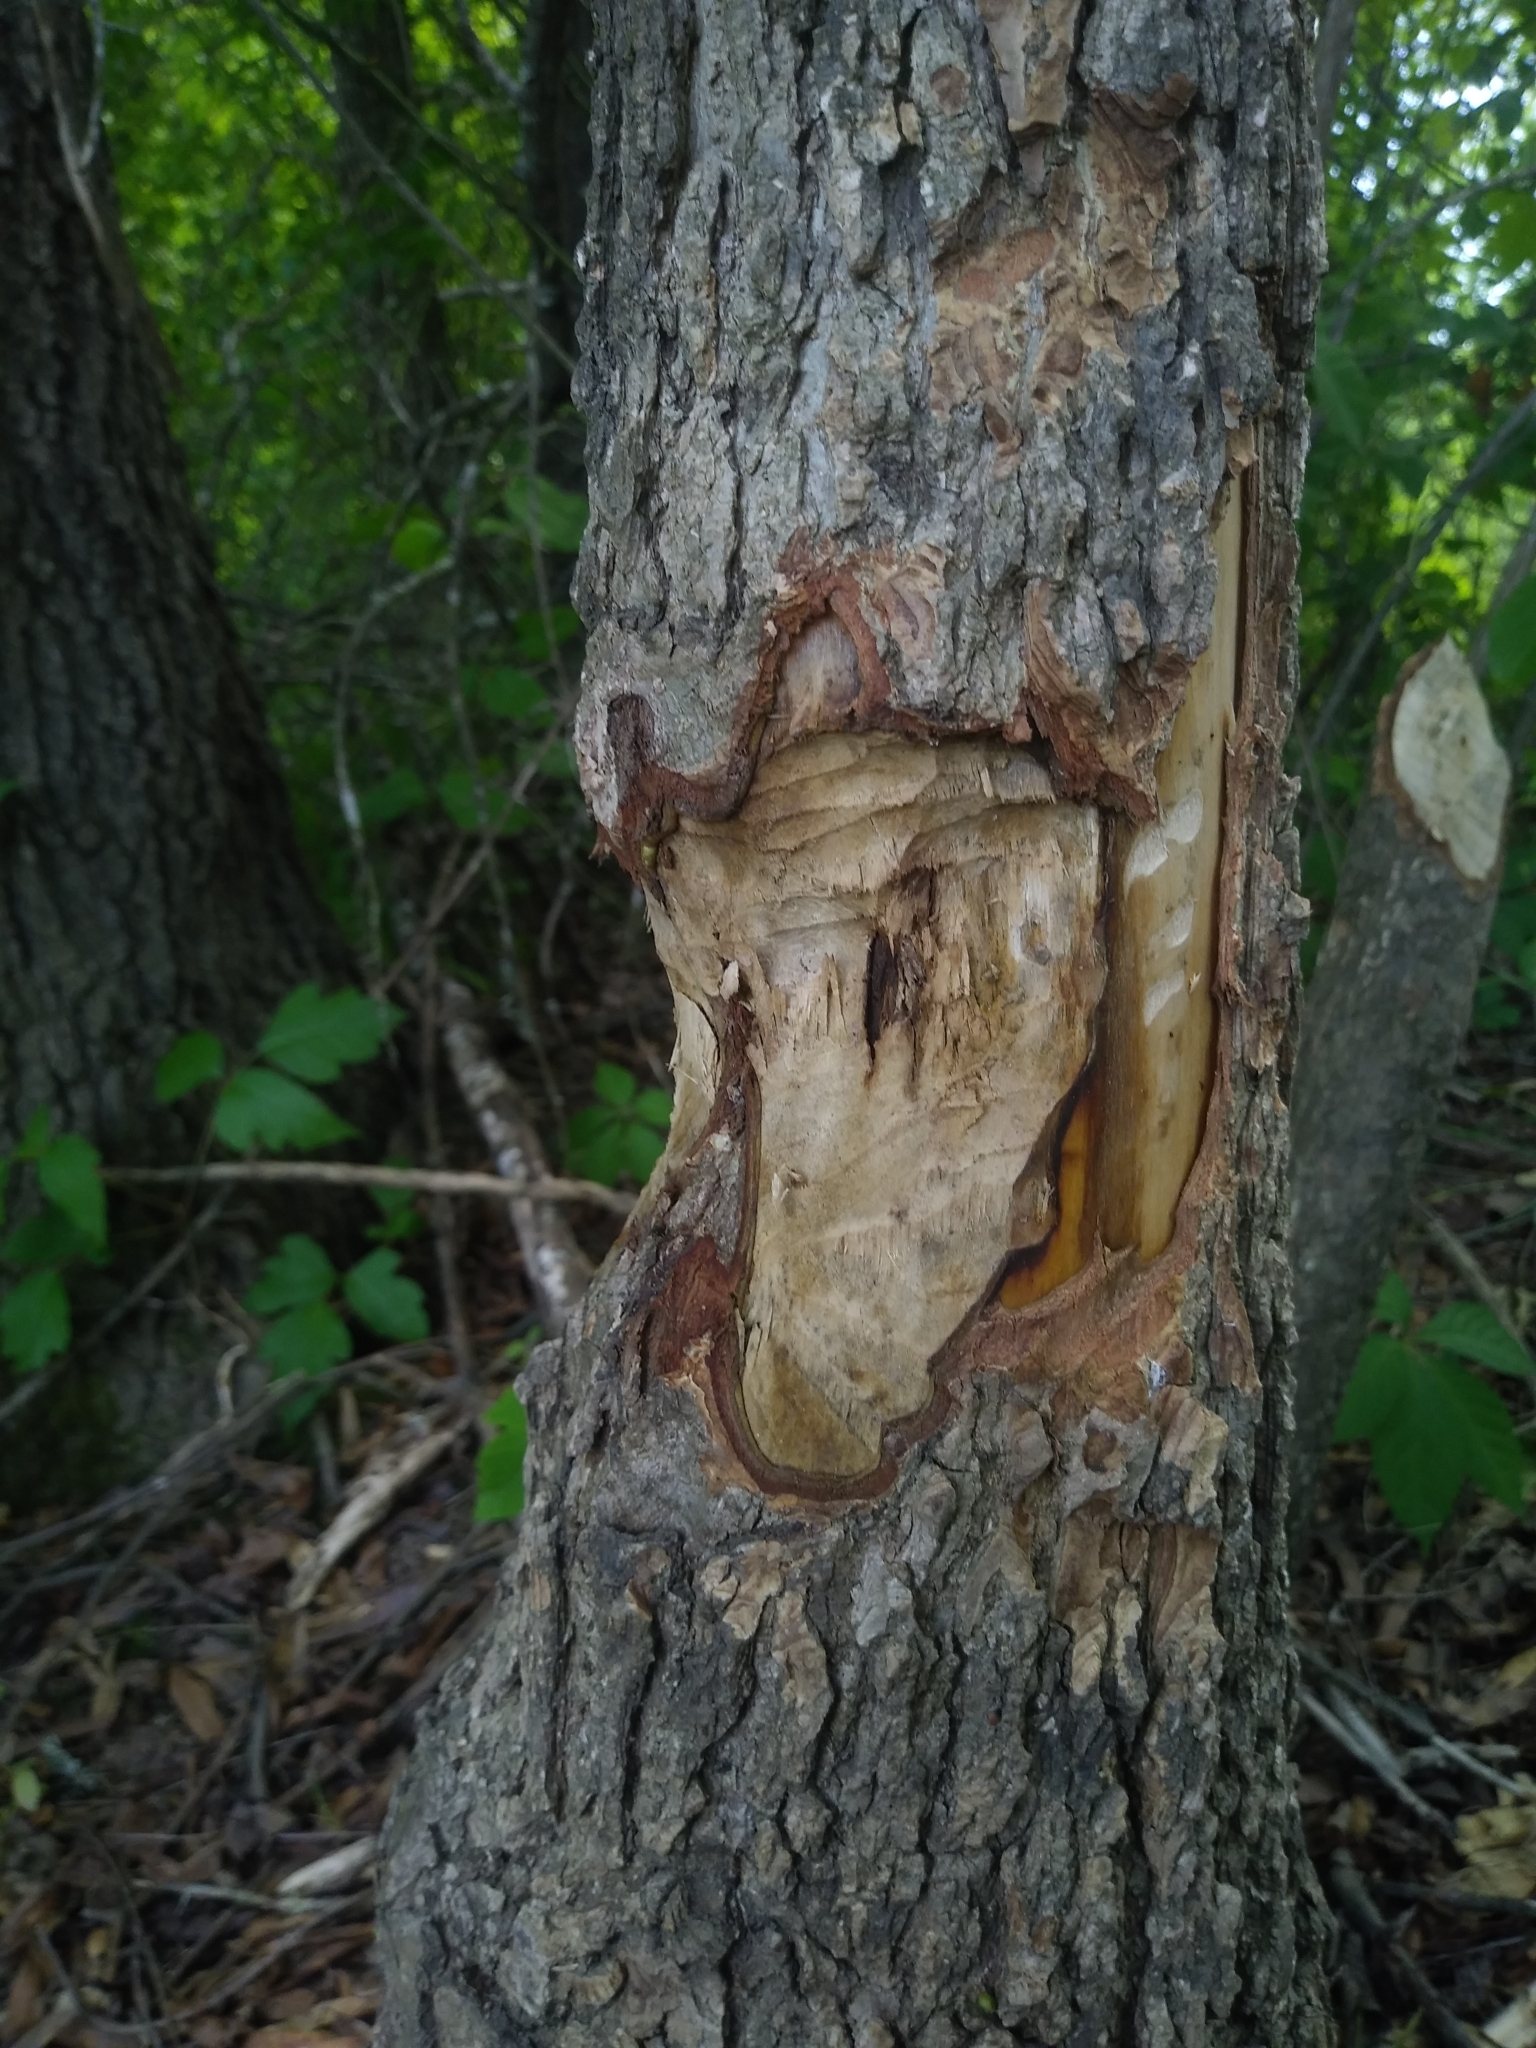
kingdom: Animalia
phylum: Chordata
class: Mammalia
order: Rodentia
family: Castoridae
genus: Castor
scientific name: Castor canadensis
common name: American beaver
